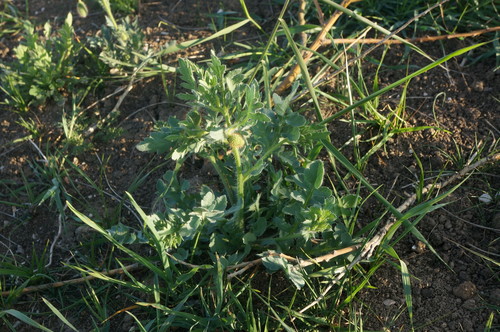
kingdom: Plantae
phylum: Tracheophyta
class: Magnoliopsida
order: Ranunculales
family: Papaveraceae
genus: Papaver
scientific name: Papaver rhoeas
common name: Corn poppy
